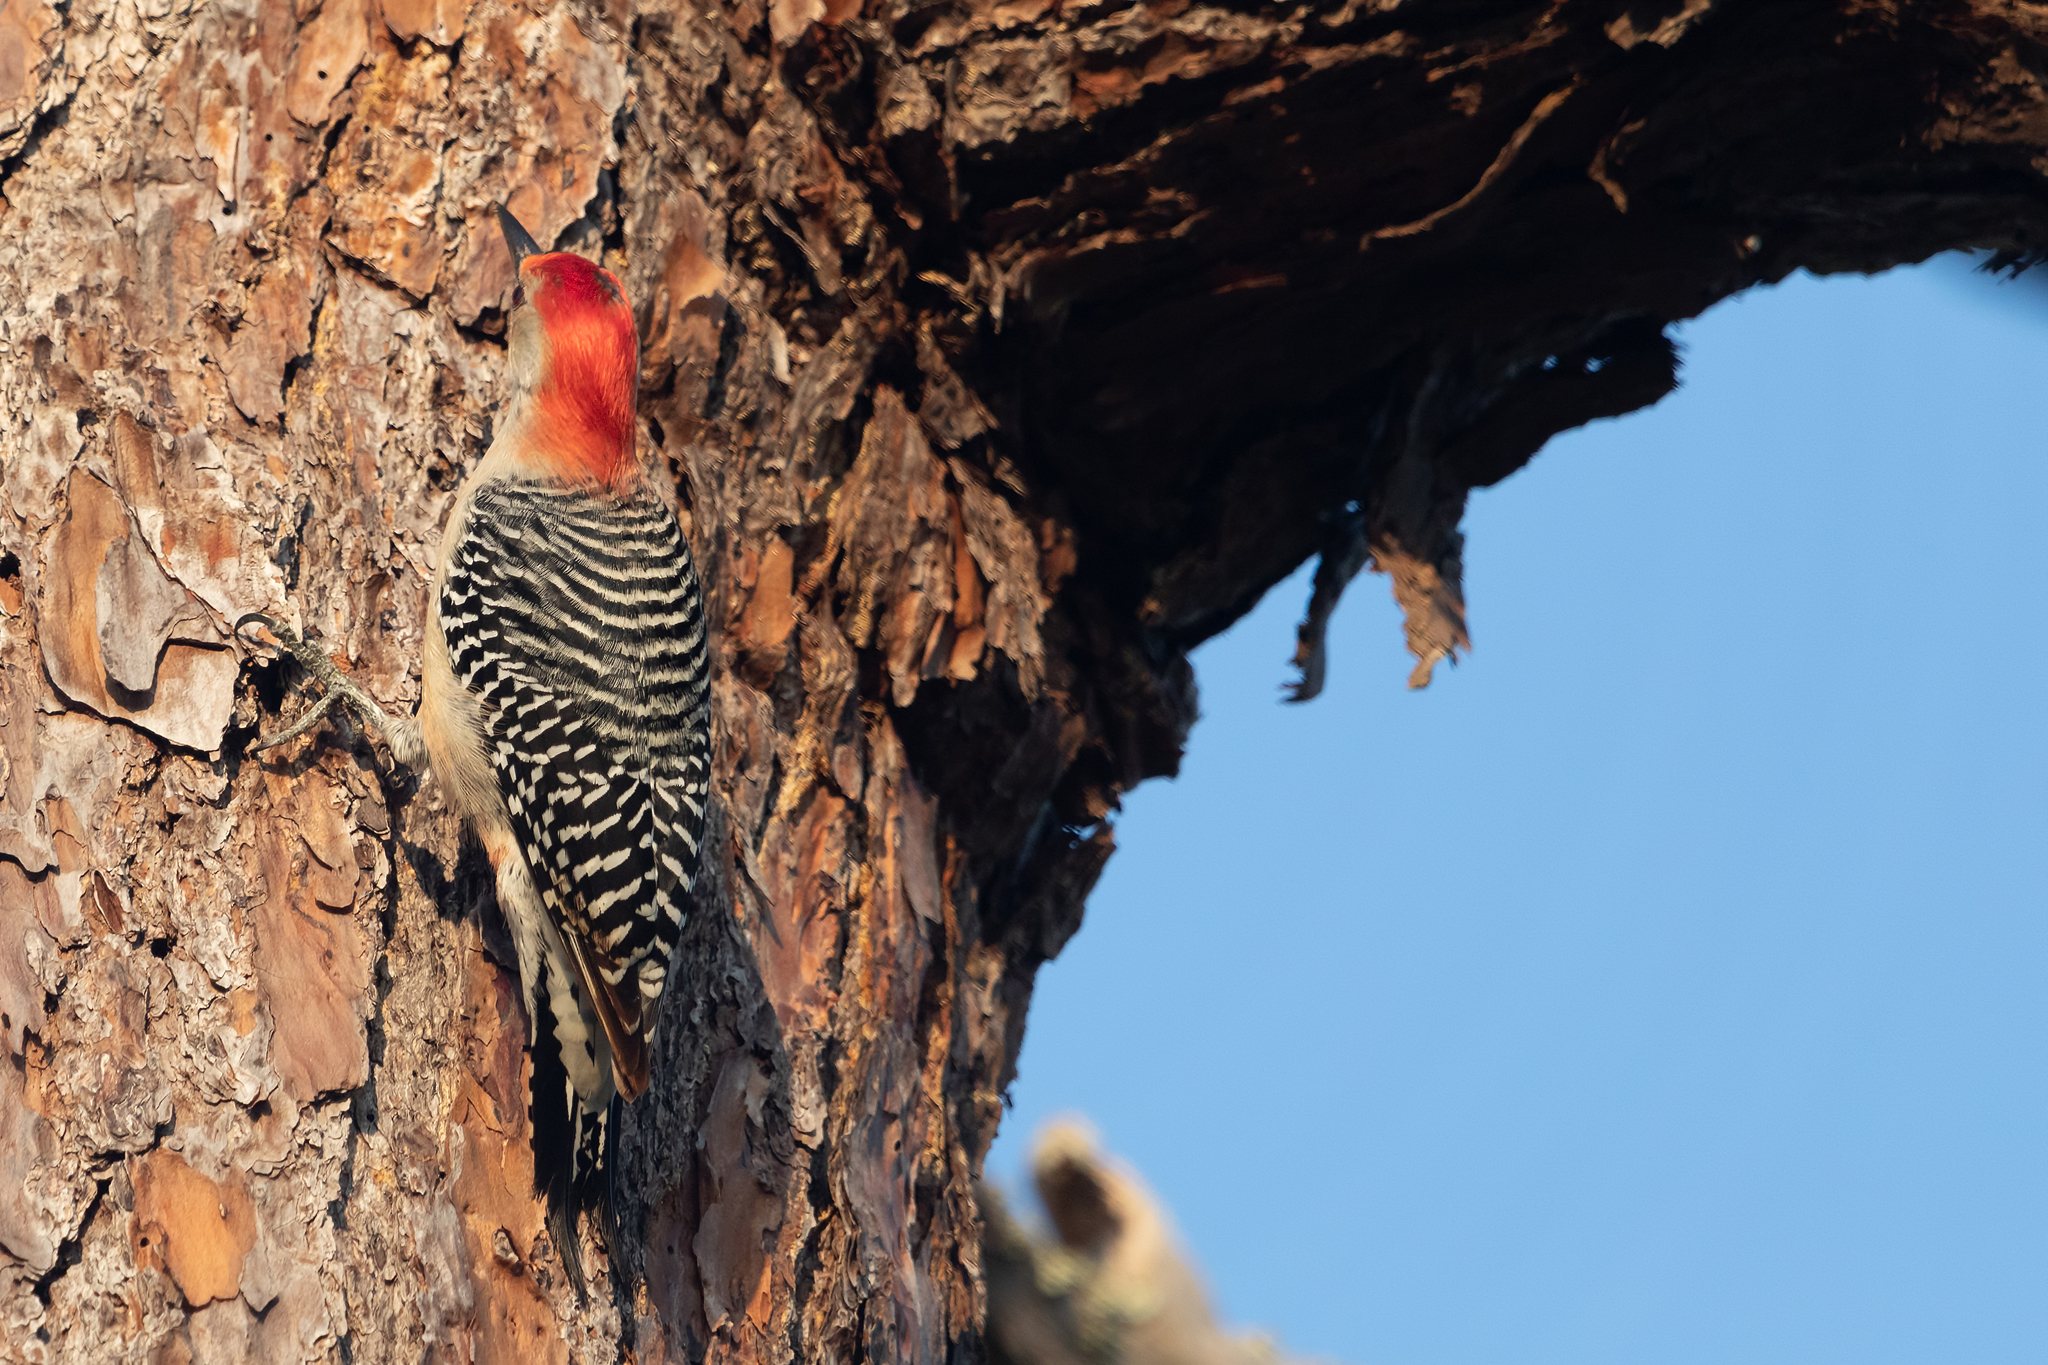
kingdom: Animalia
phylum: Chordata
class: Aves
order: Piciformes
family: Picidae
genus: Melanerpes
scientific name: Melanerpes carolinus
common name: Red-bellied woodpecker
